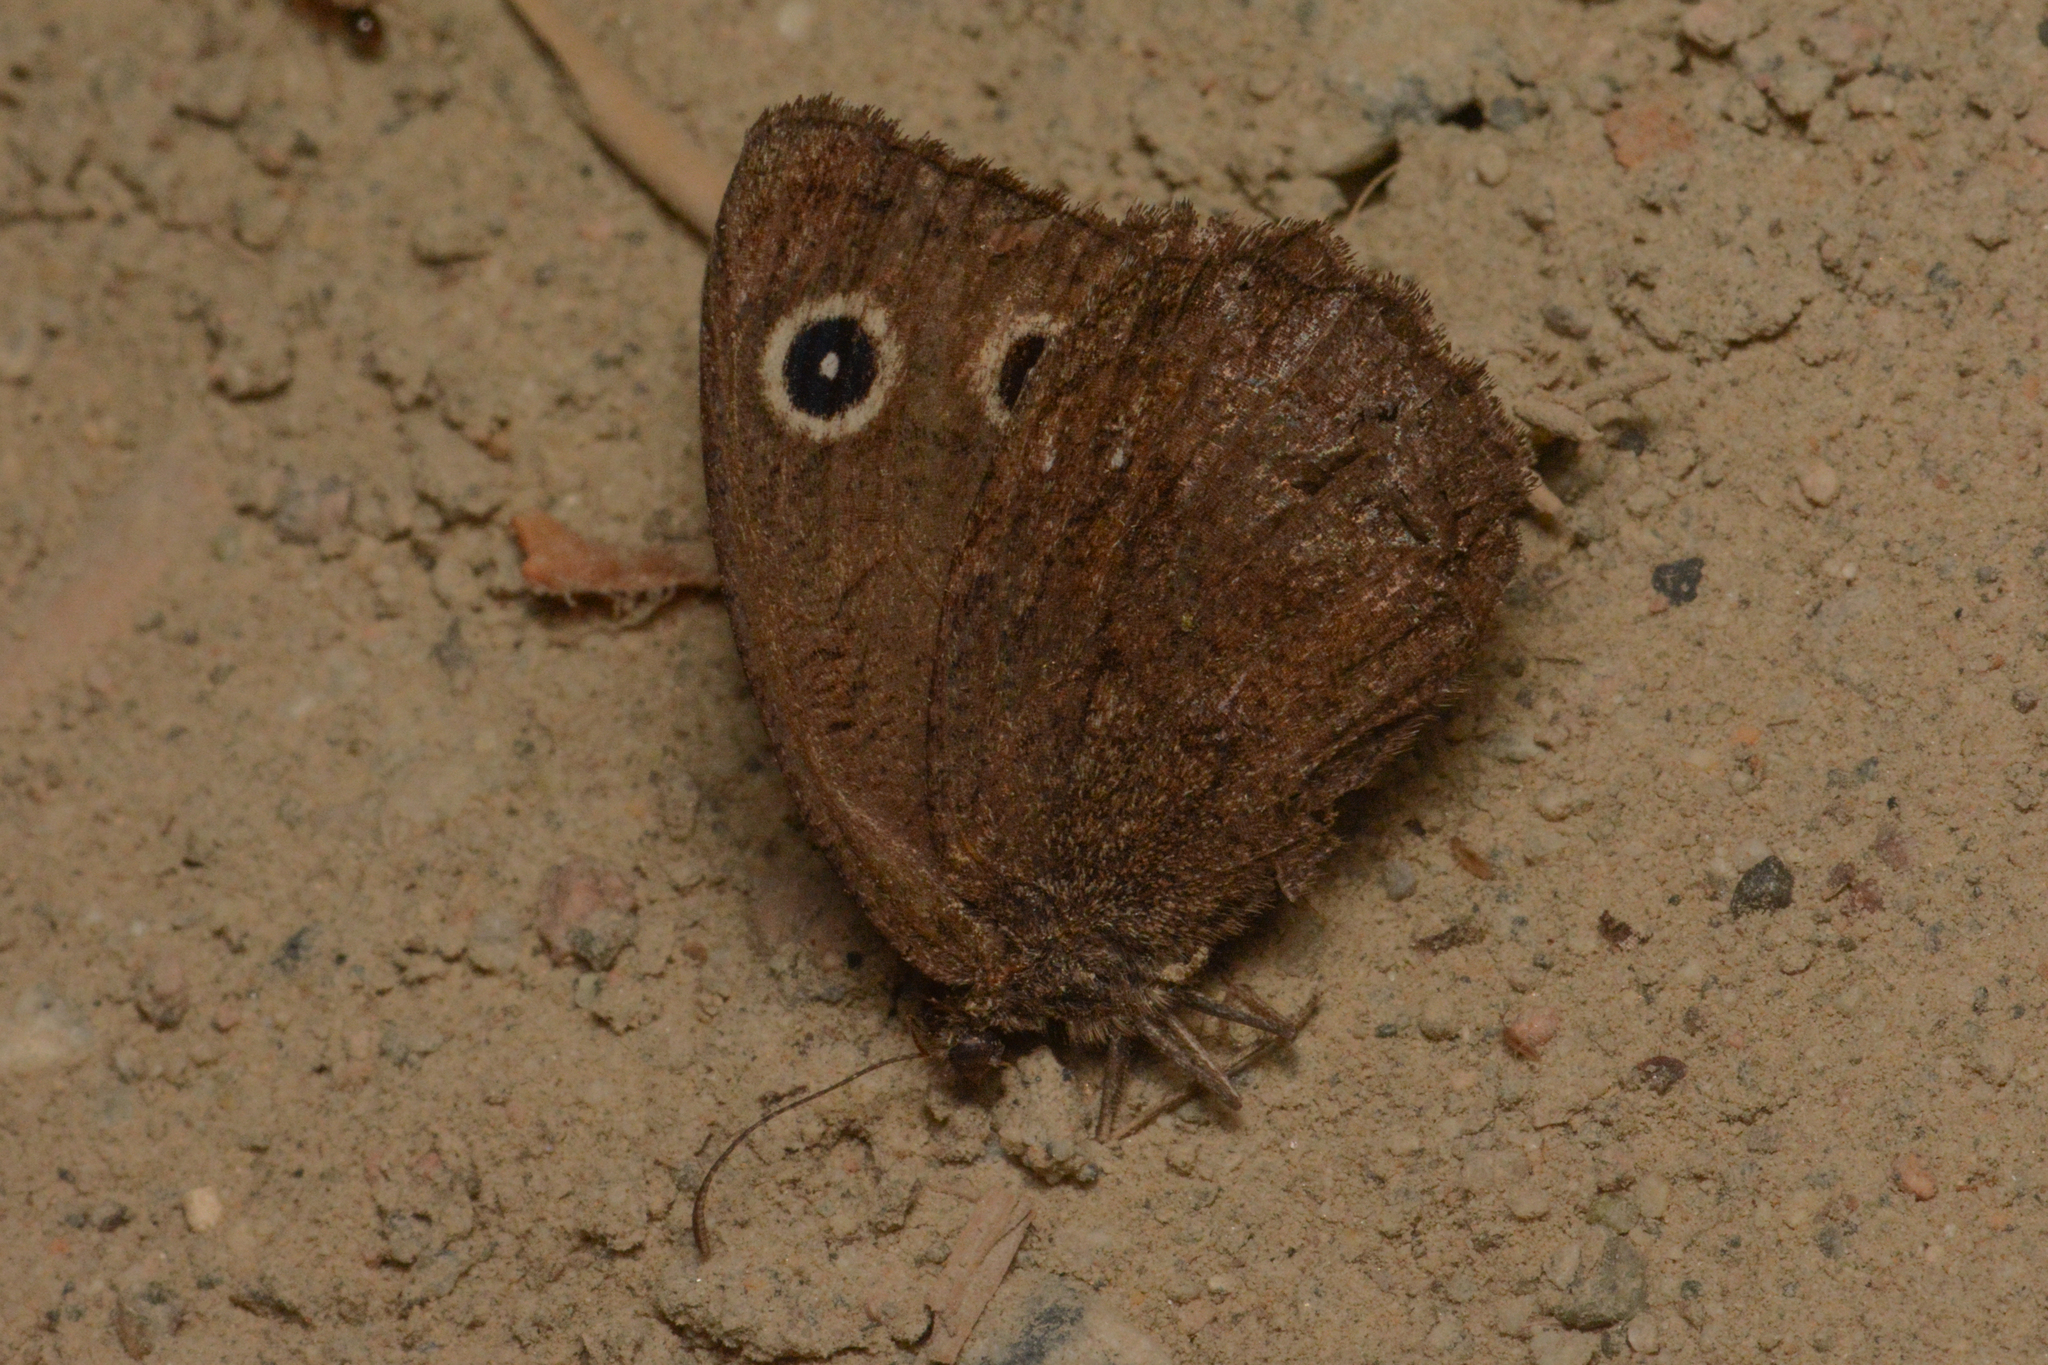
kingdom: Animalia
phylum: Arthropoda
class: Insecta
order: Lepidoptera
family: Nymphalidae
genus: Cercyonis
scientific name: Cercyonis oetus
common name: Small wood-nymph
